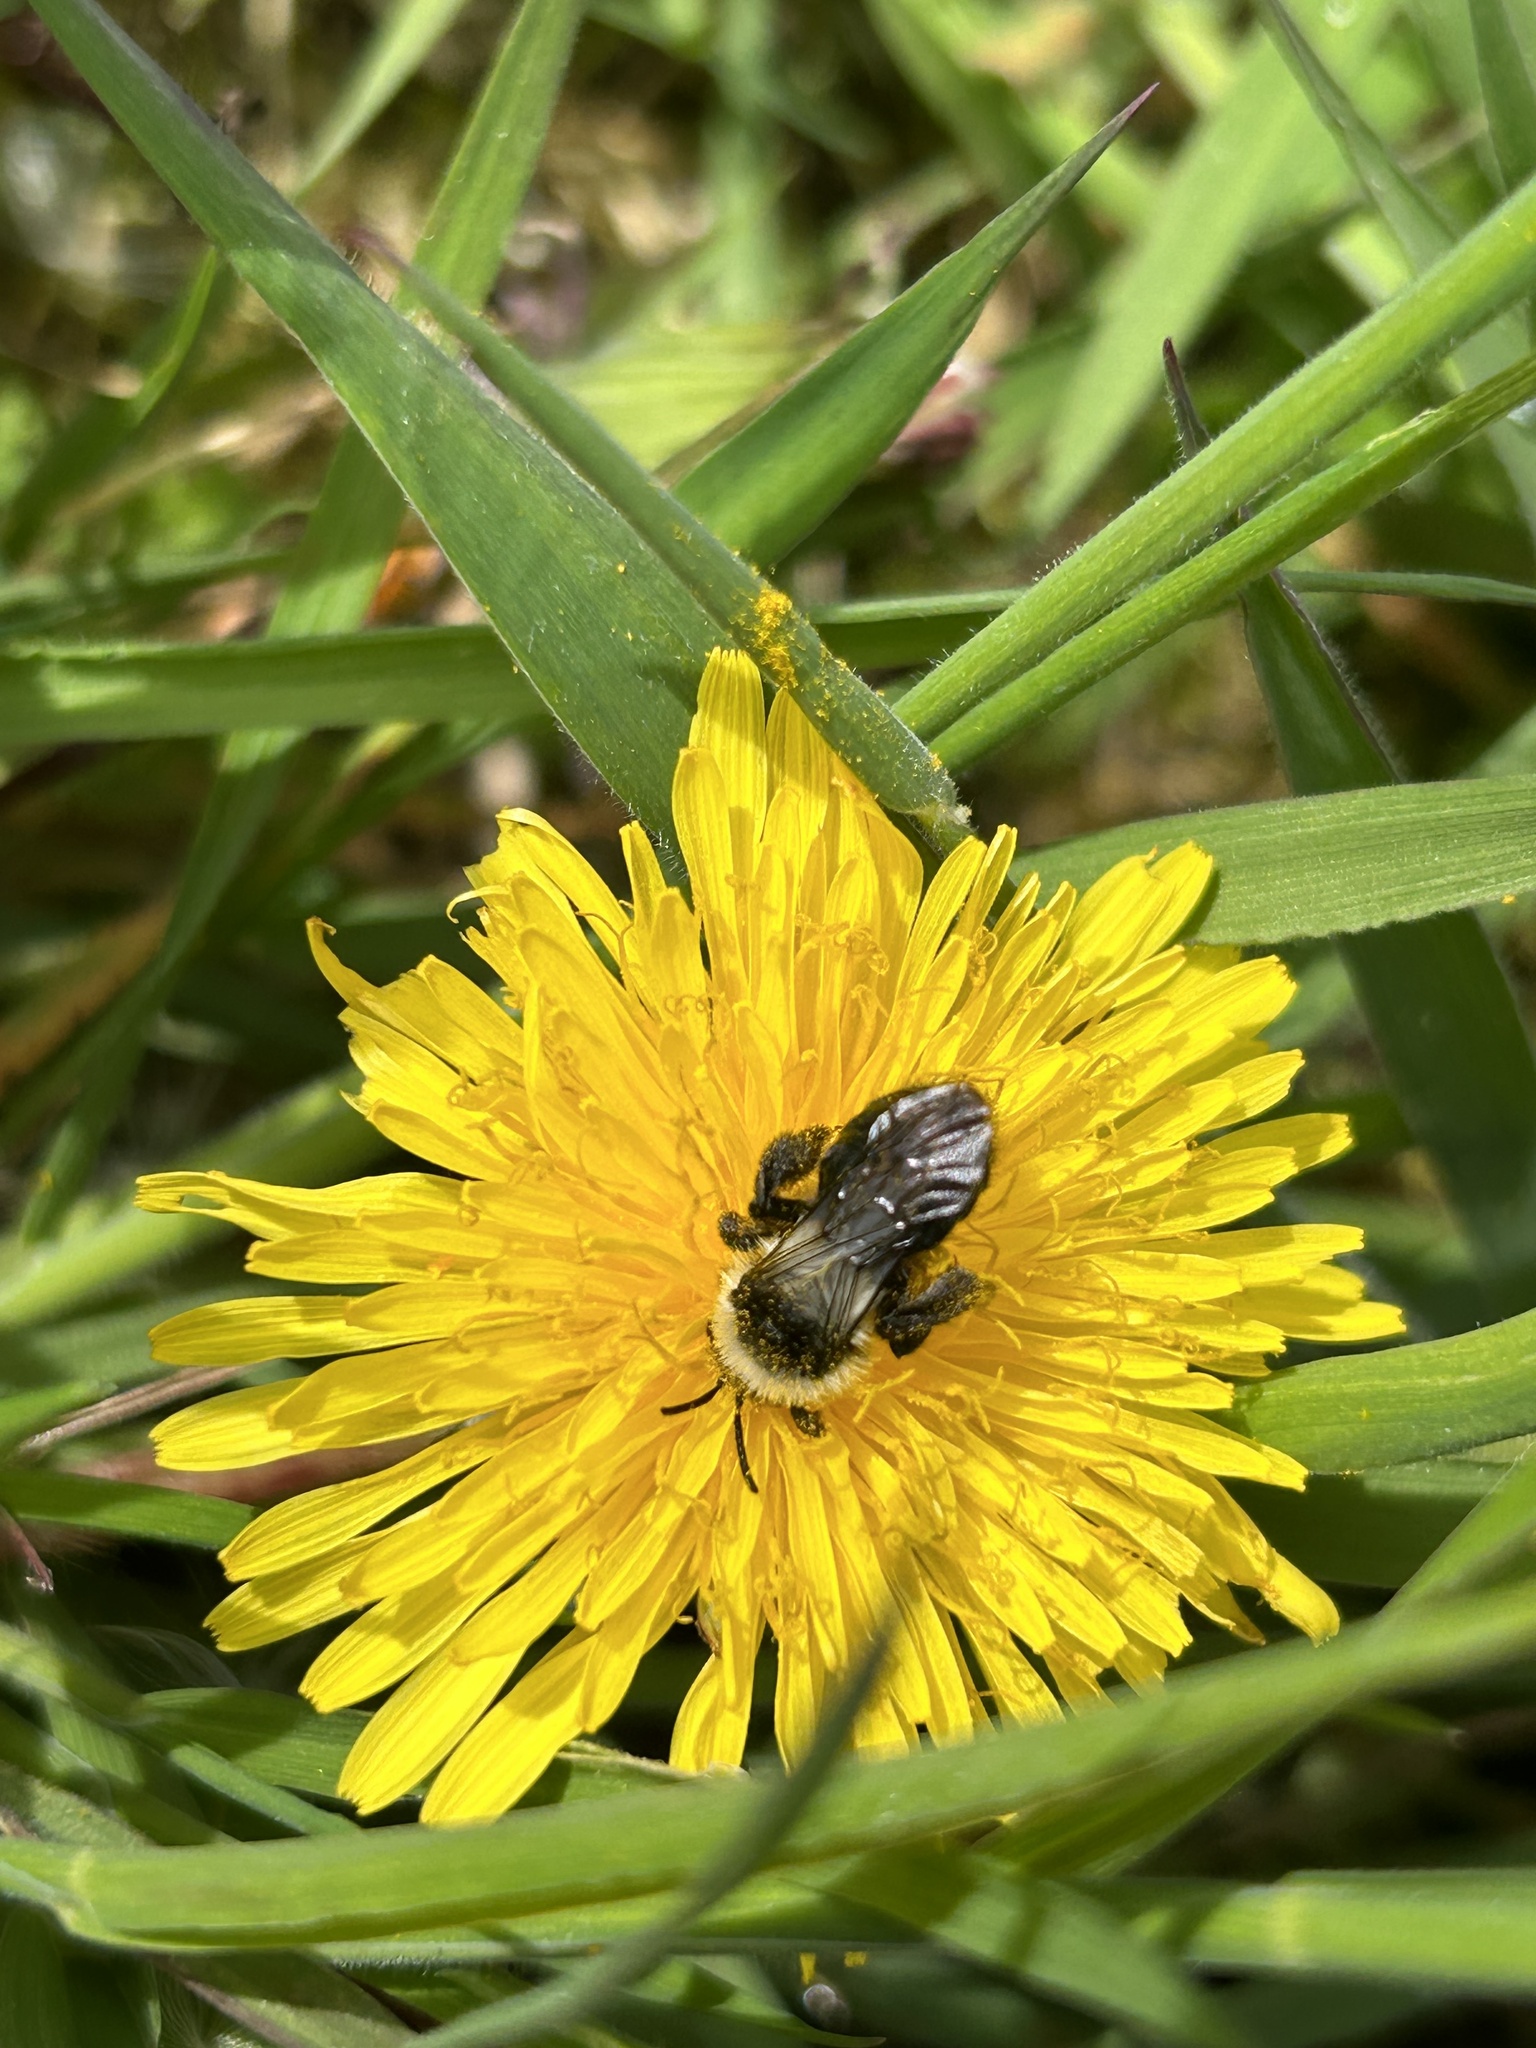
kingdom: Animalia
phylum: Arthropoda
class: Insecta
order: Hymenoptera
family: Andrenidae
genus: Andrena
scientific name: Andrena cineraria
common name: Ashy mining bee
